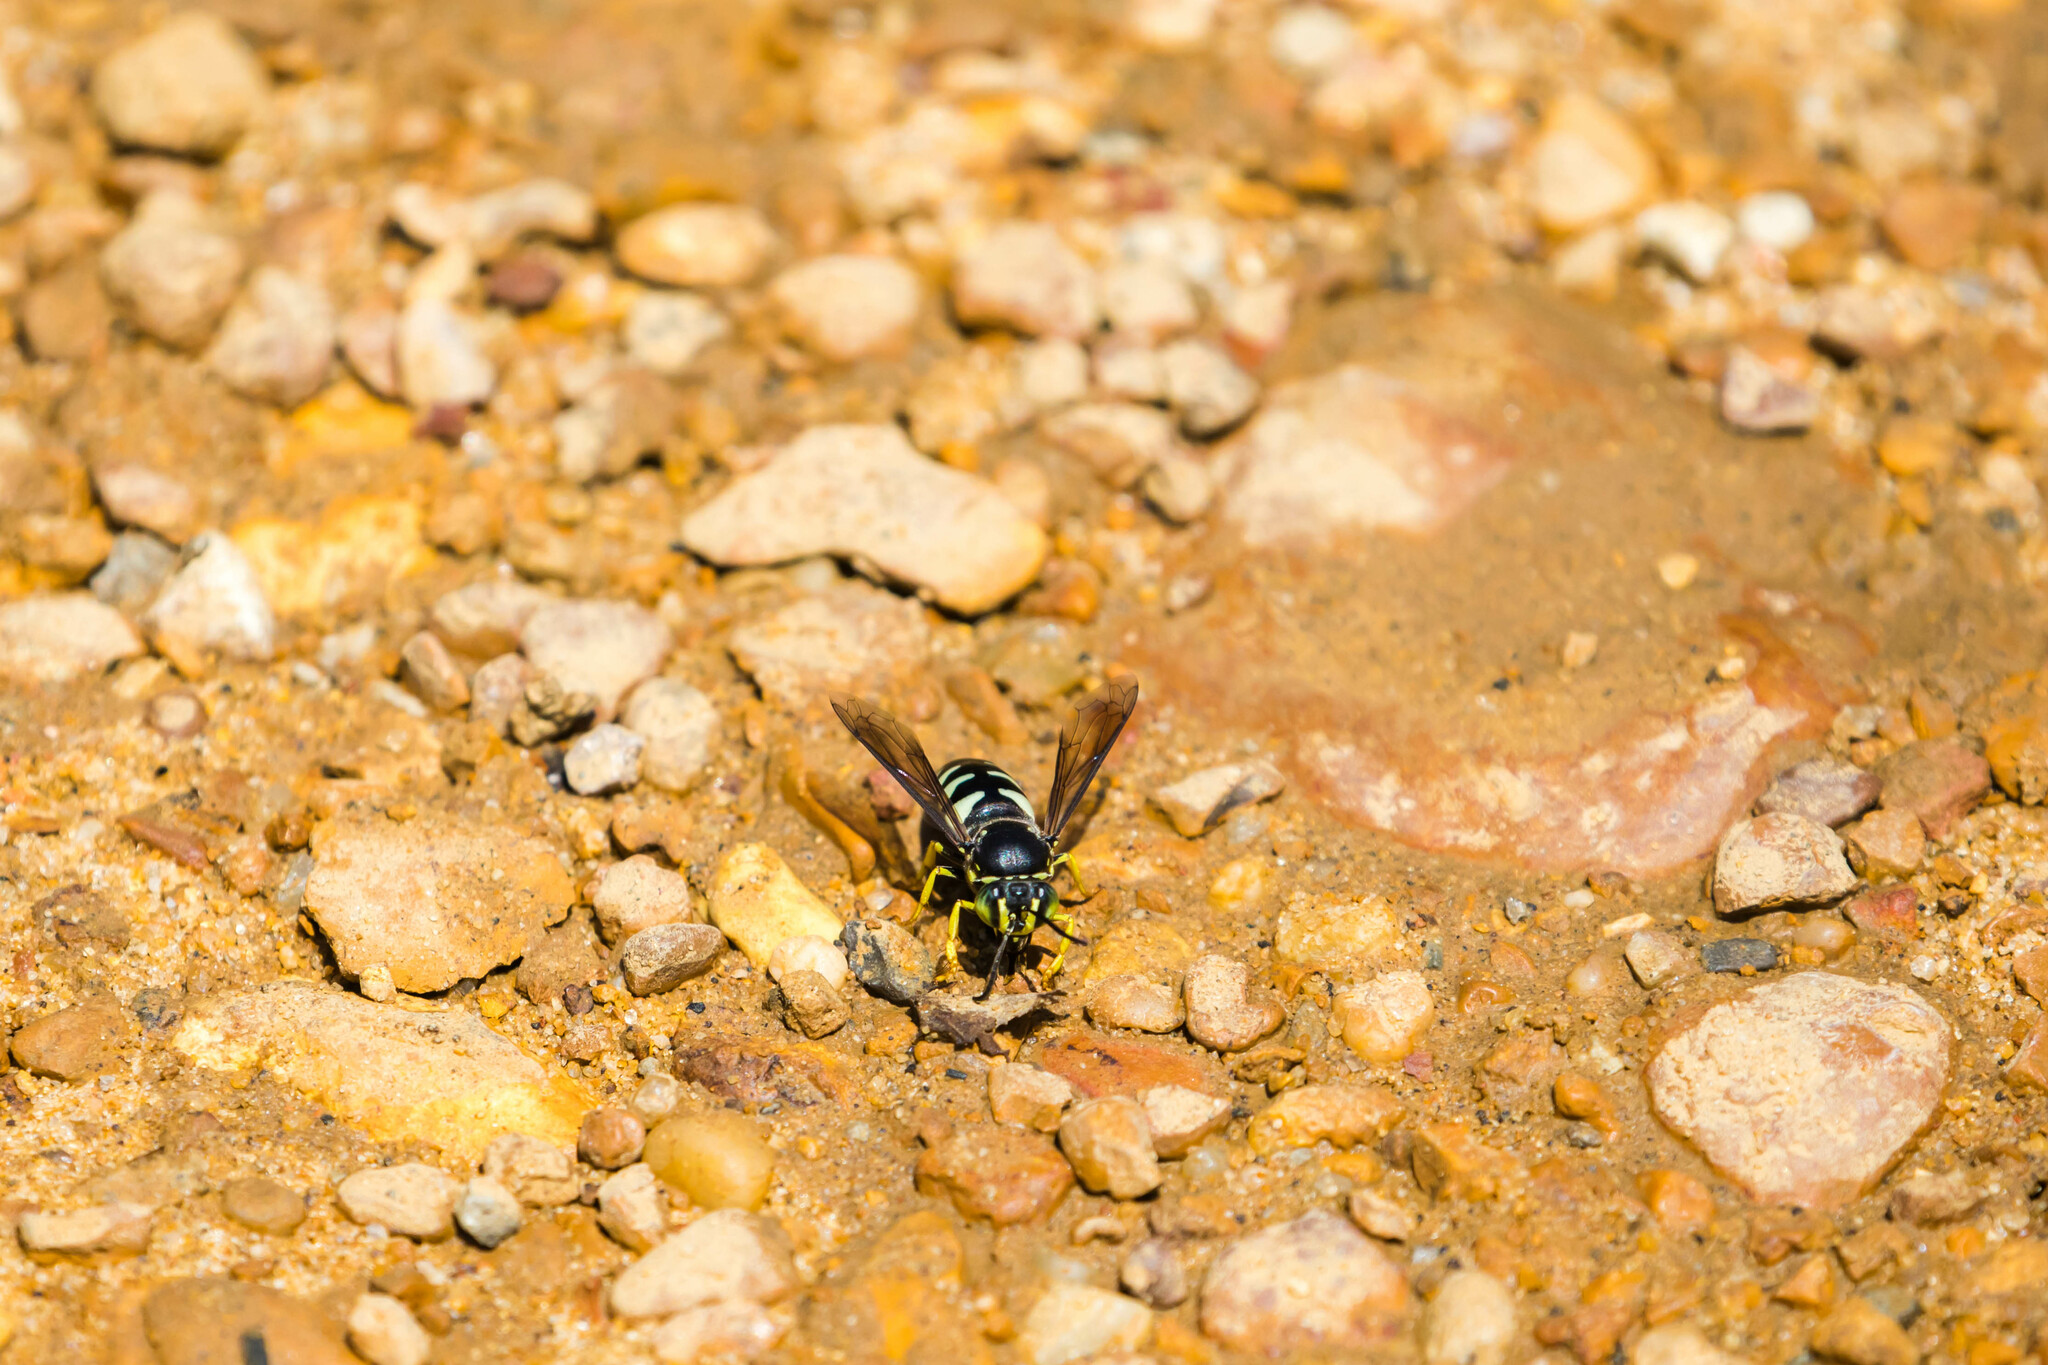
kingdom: Animalia
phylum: Arthropoda
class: Insecta
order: Hymenoptera
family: Crabronidae
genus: Bicyrtes
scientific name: Bicyrtes quadrifasciatus
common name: Four-banded stink bug hunter wasp
